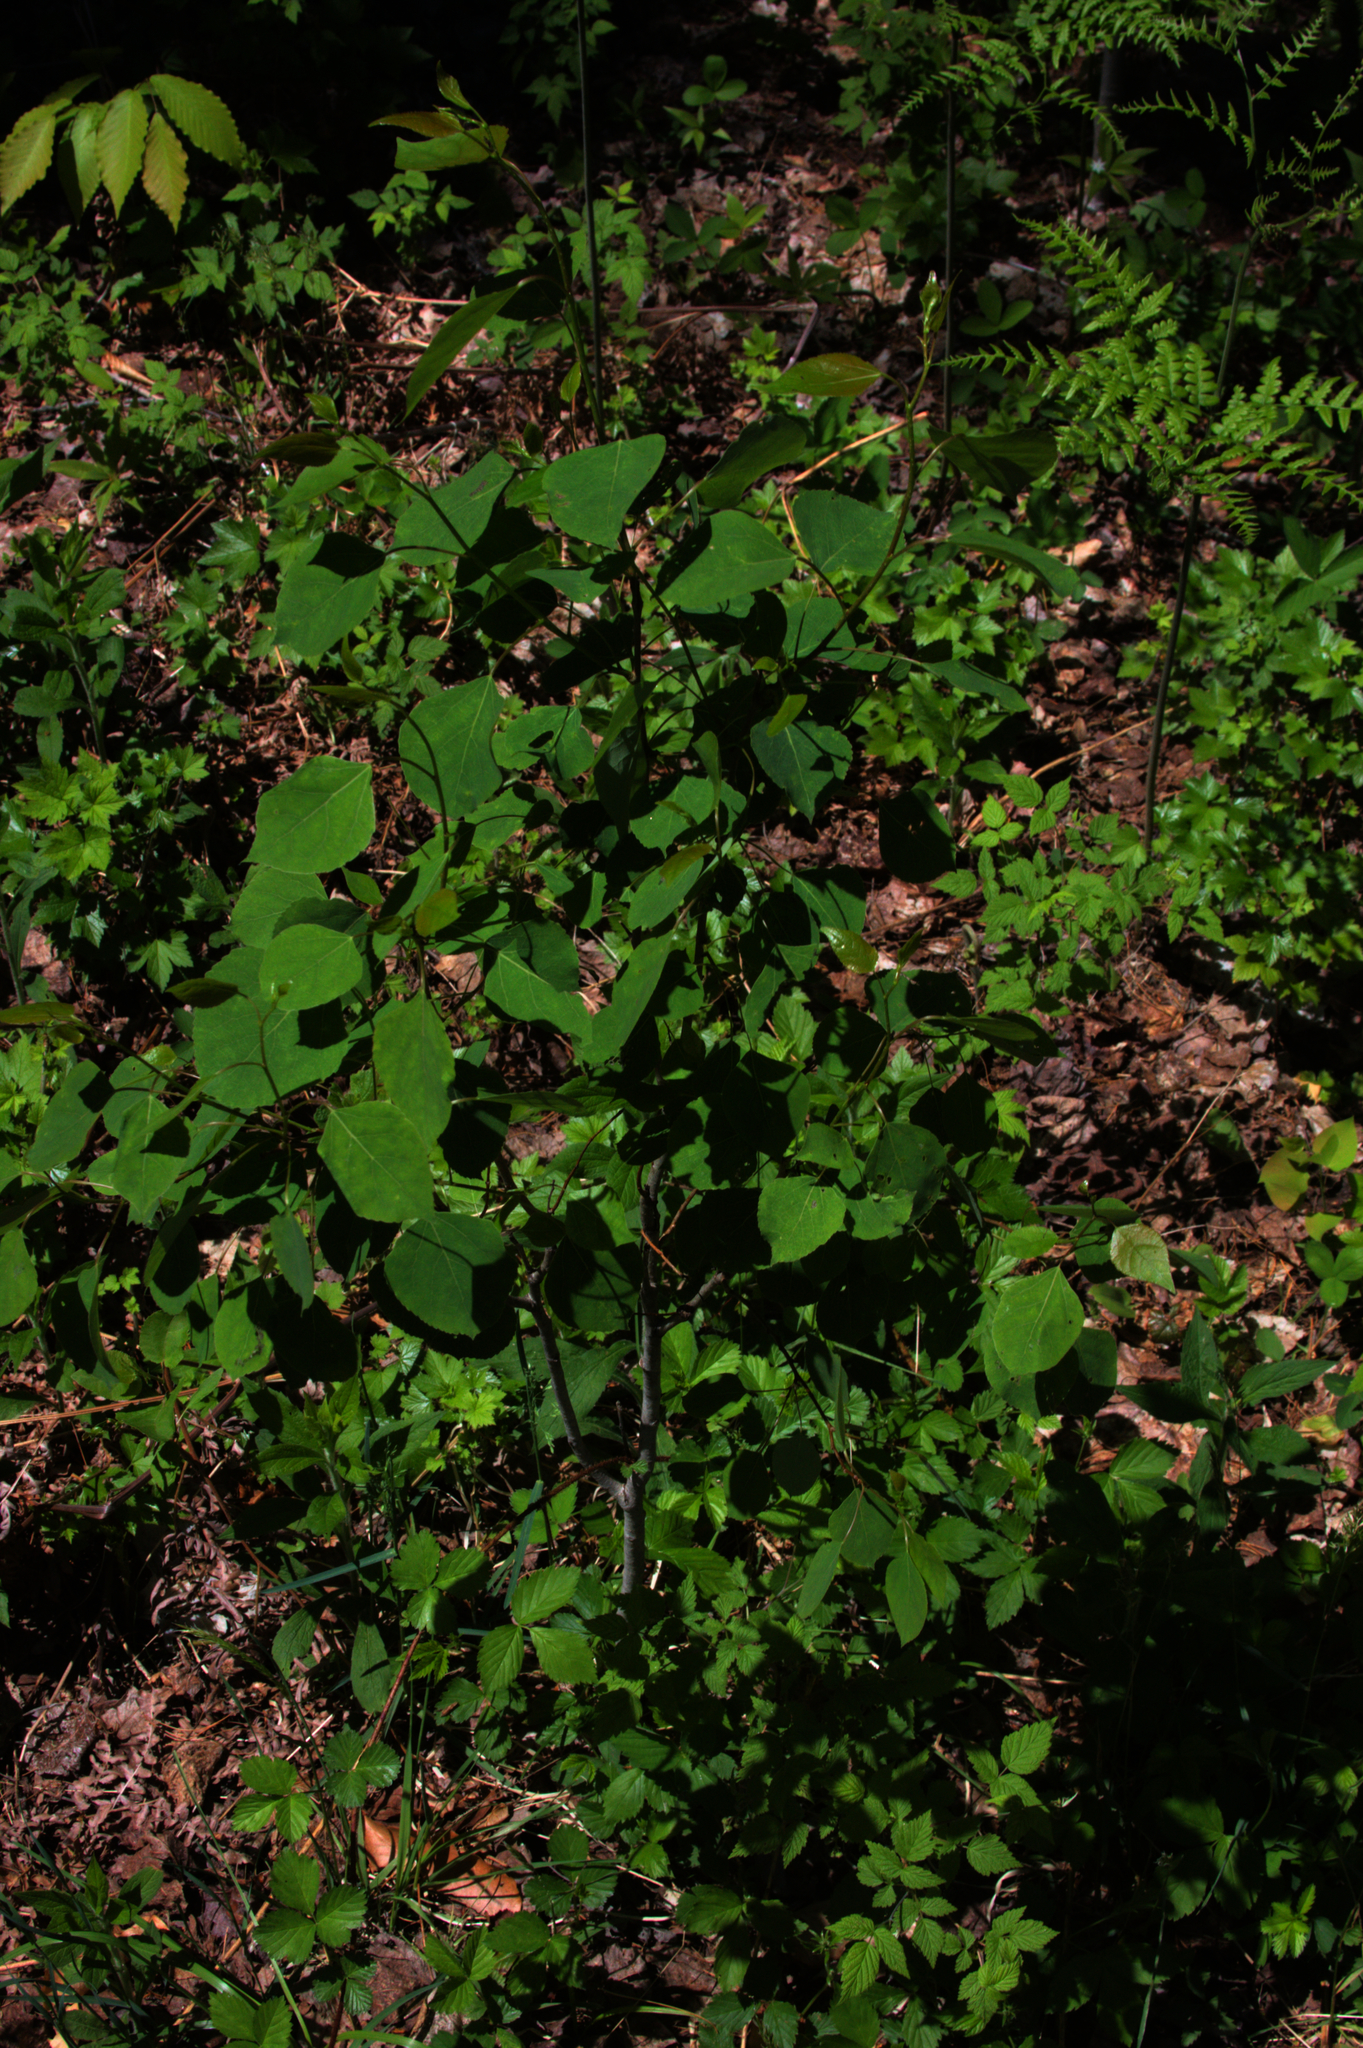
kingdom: Plantae
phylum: Tracheophyta
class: Magnoliopsida
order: Malpighiales
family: Salicaceae
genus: Populus
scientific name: Populus tremuloides
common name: Quaking aspen
